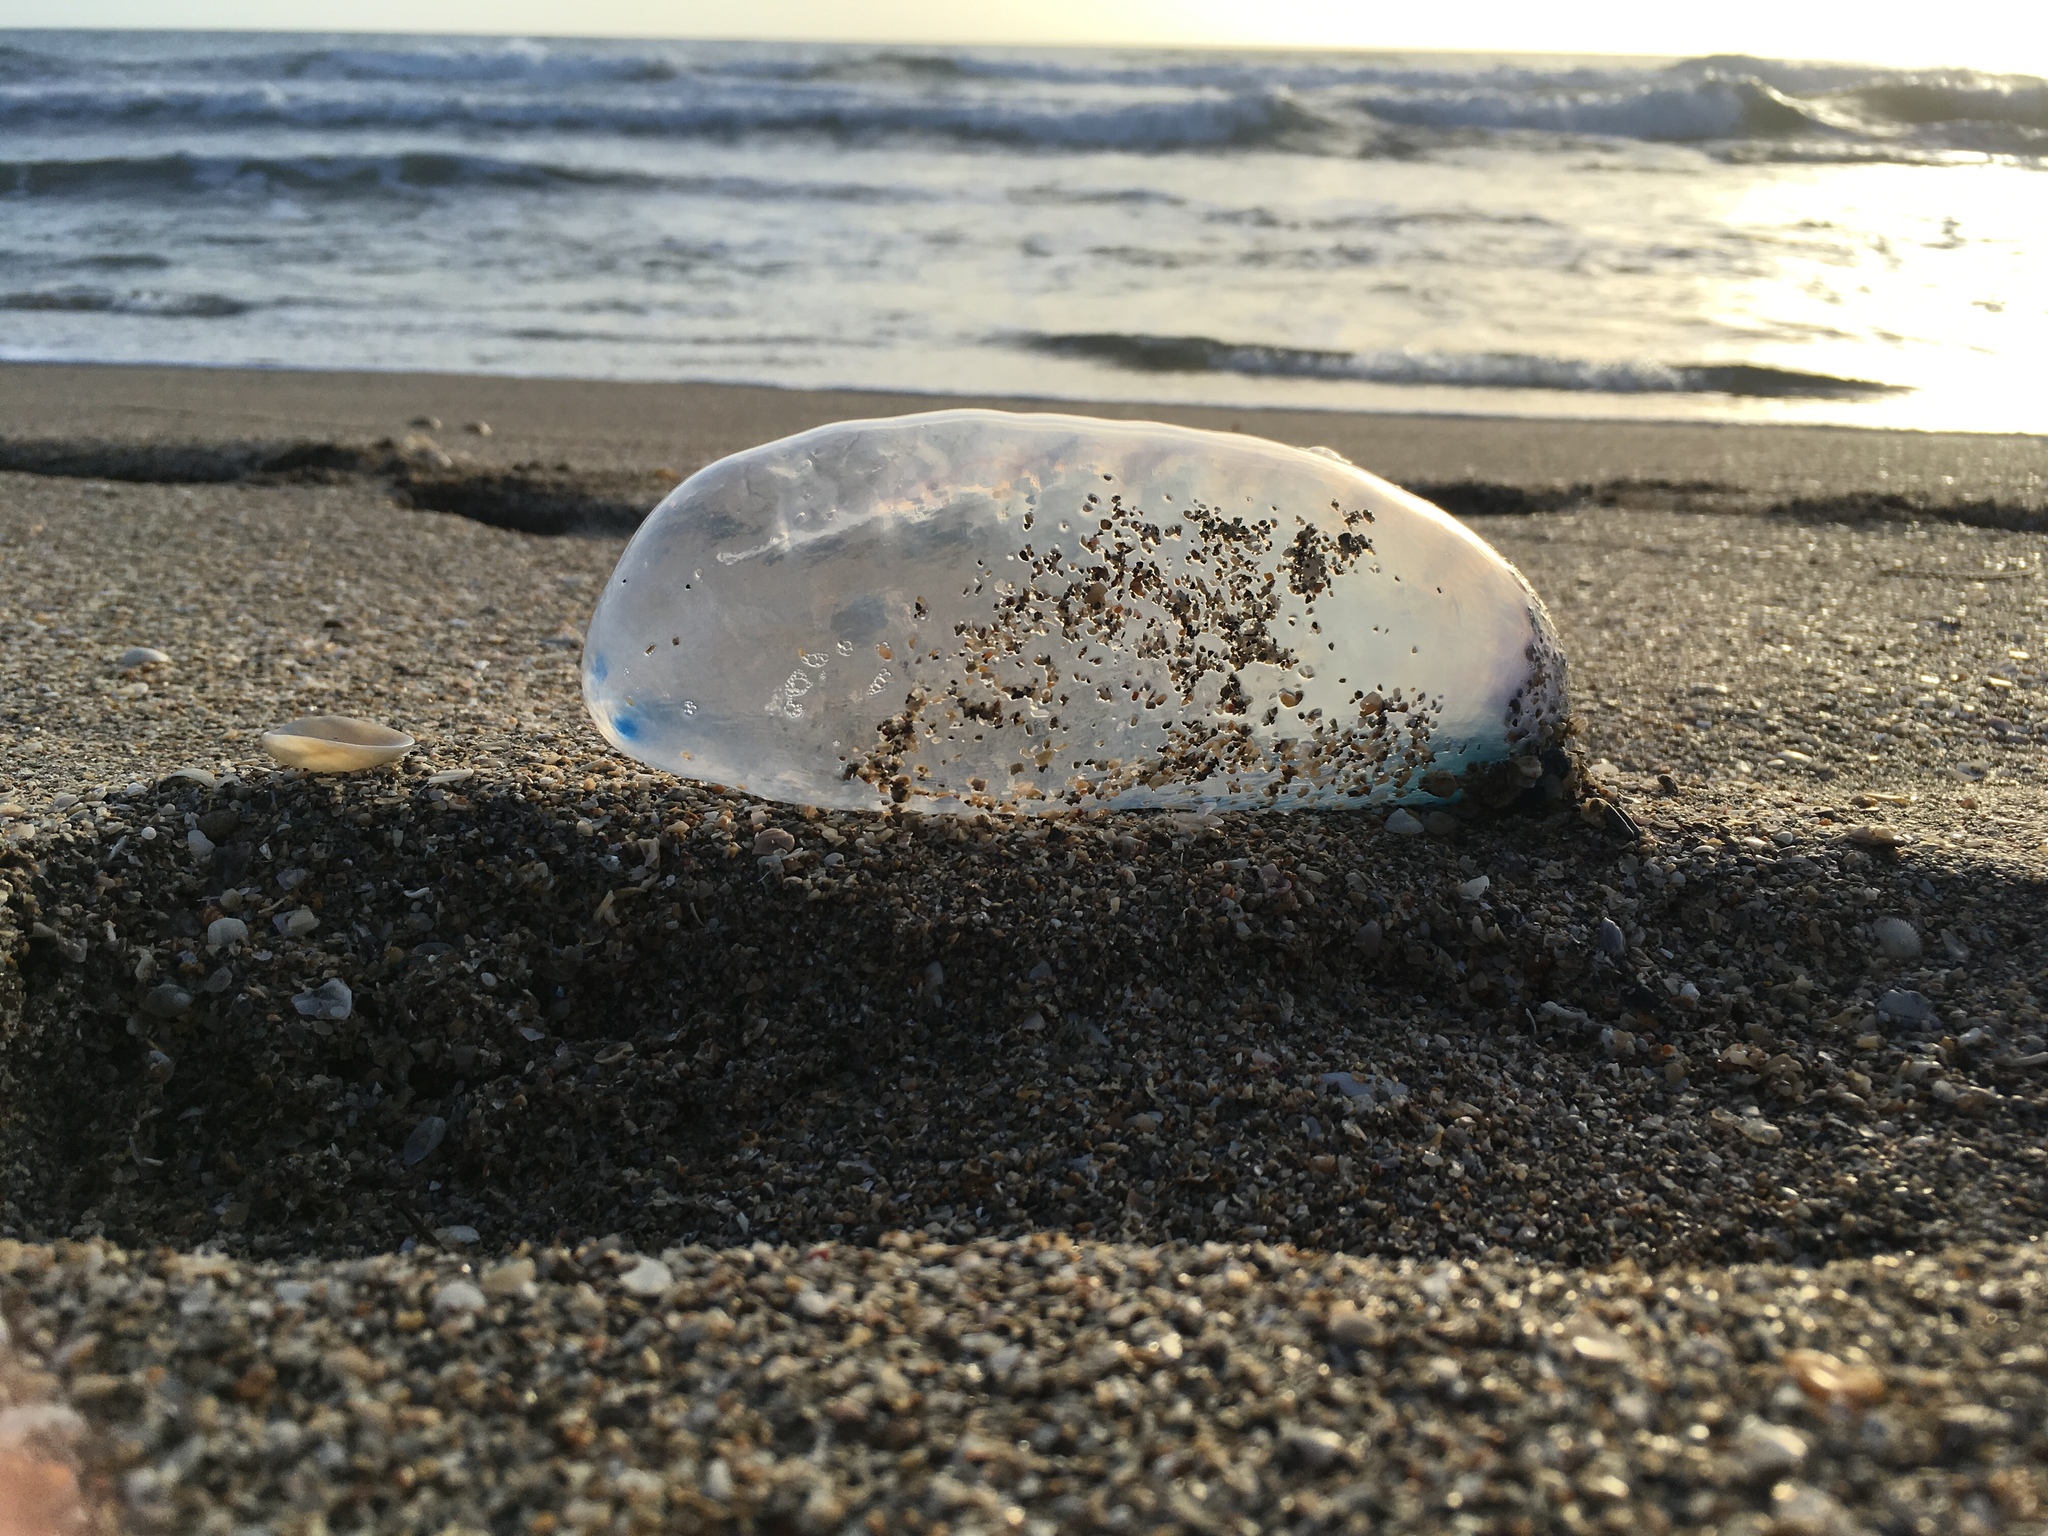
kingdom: Animalia
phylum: Cnidaria
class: Hydrozoa
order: Siphonophorae
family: Physaliidae
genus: Physalia
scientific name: Physalia physalis
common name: Portuguese man-of-war
